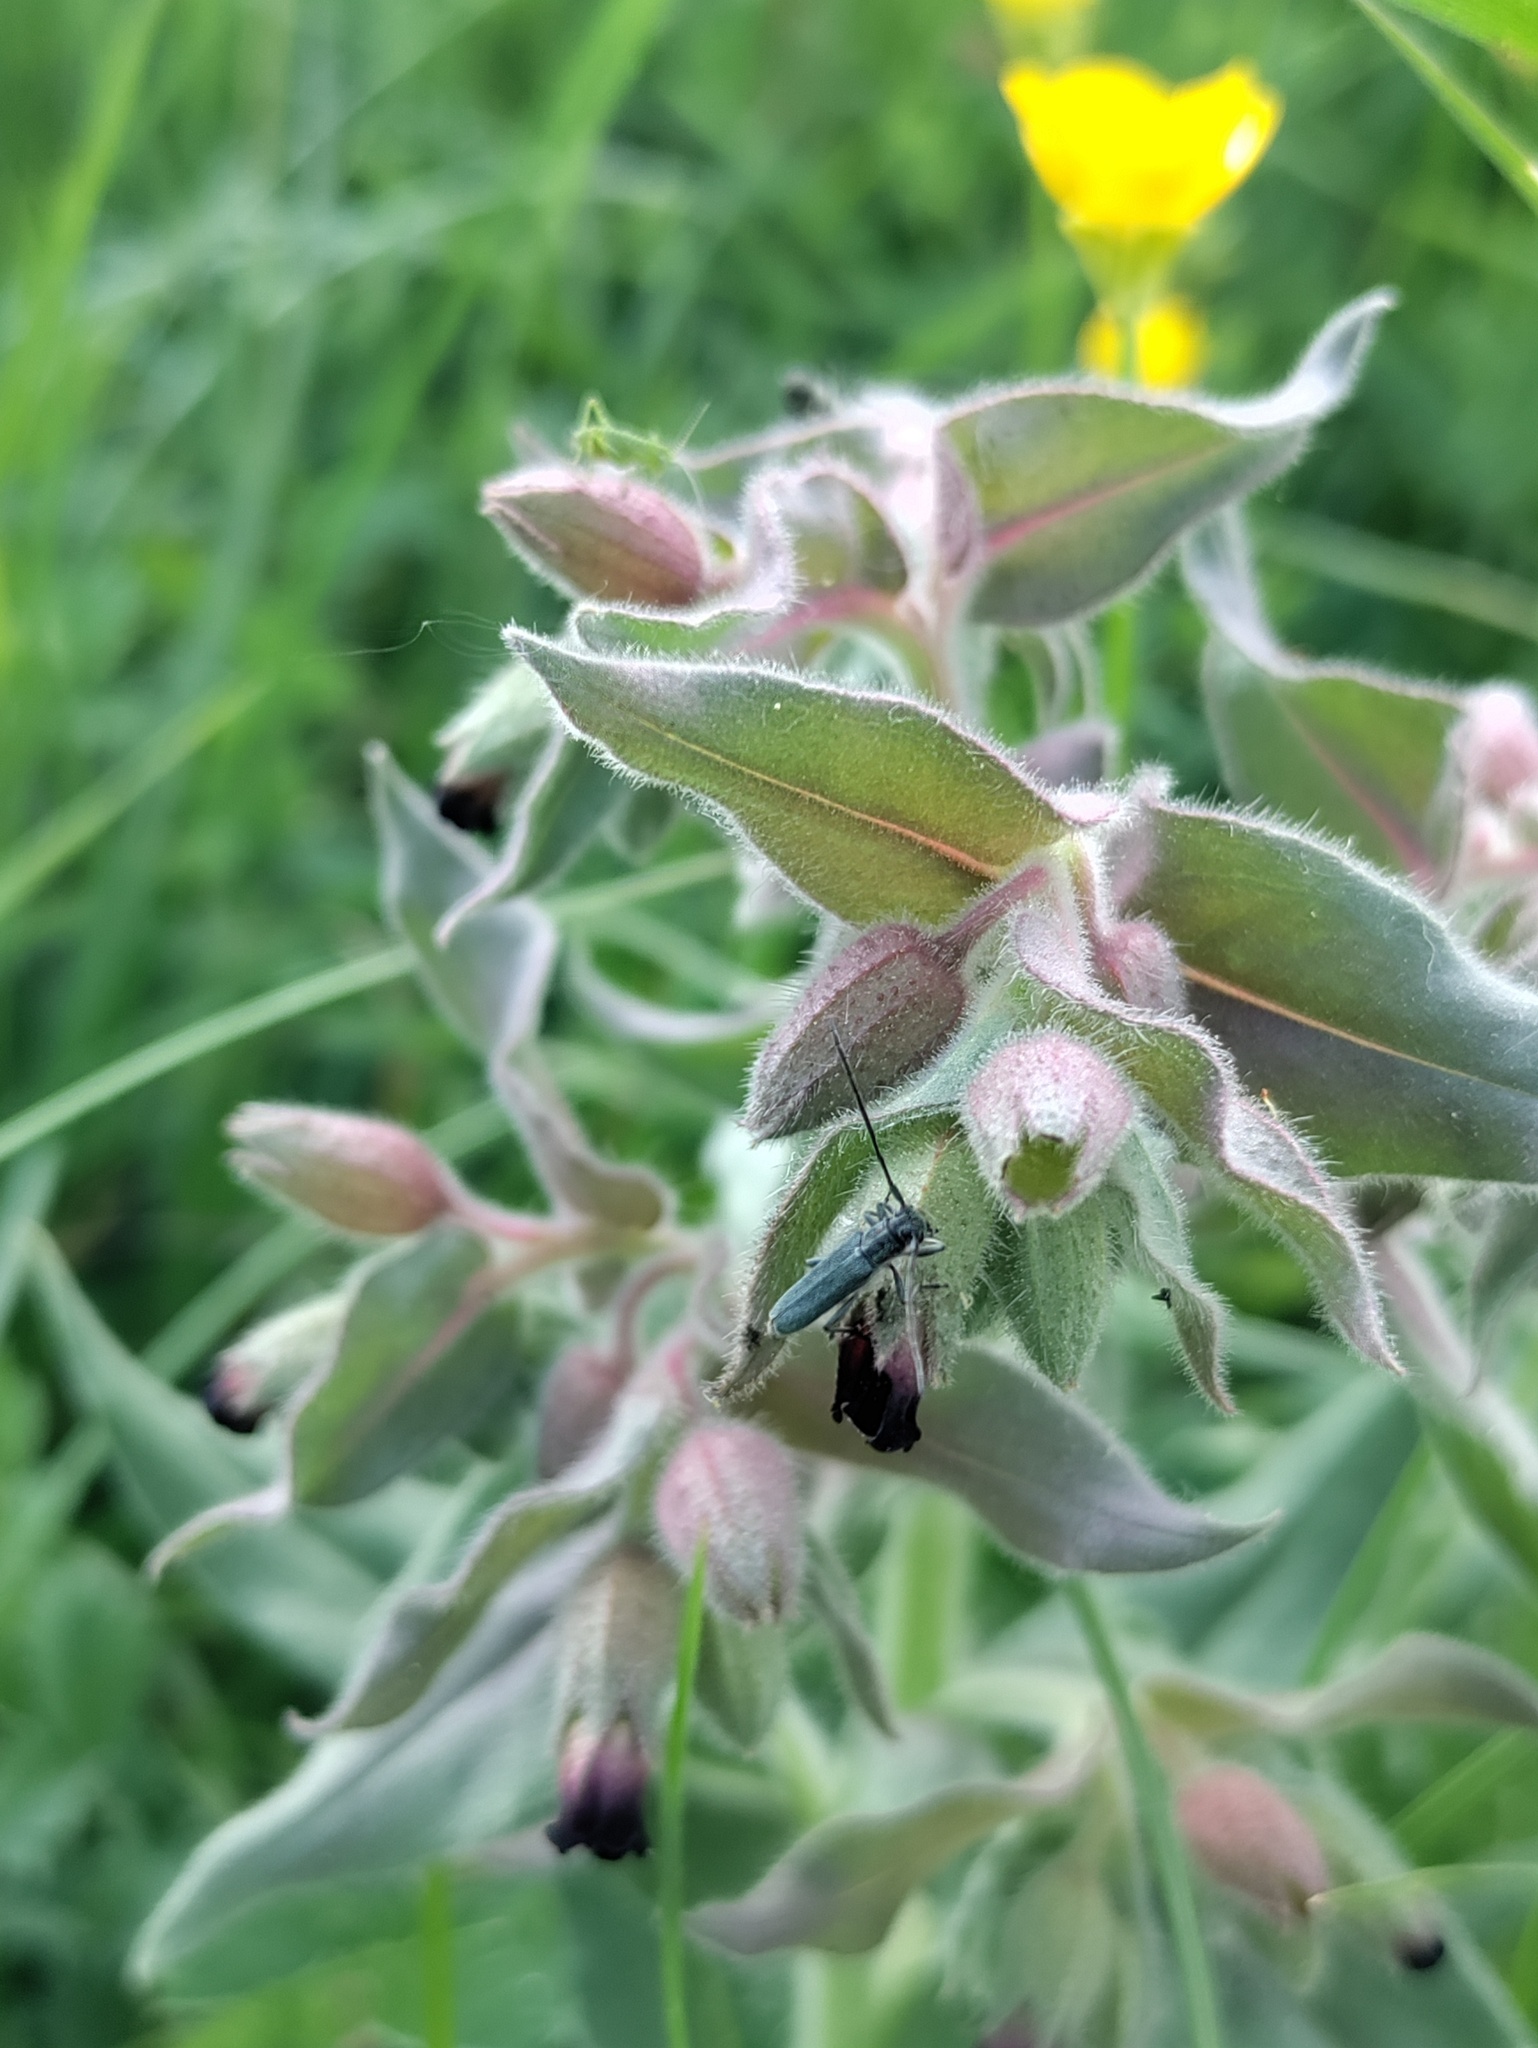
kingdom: Plantae
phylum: Tracheophyta
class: Magnoliopsida
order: Boraginales
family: Boraginaceae
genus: Nonea
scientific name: Nonea pulla
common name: Brown nonea
